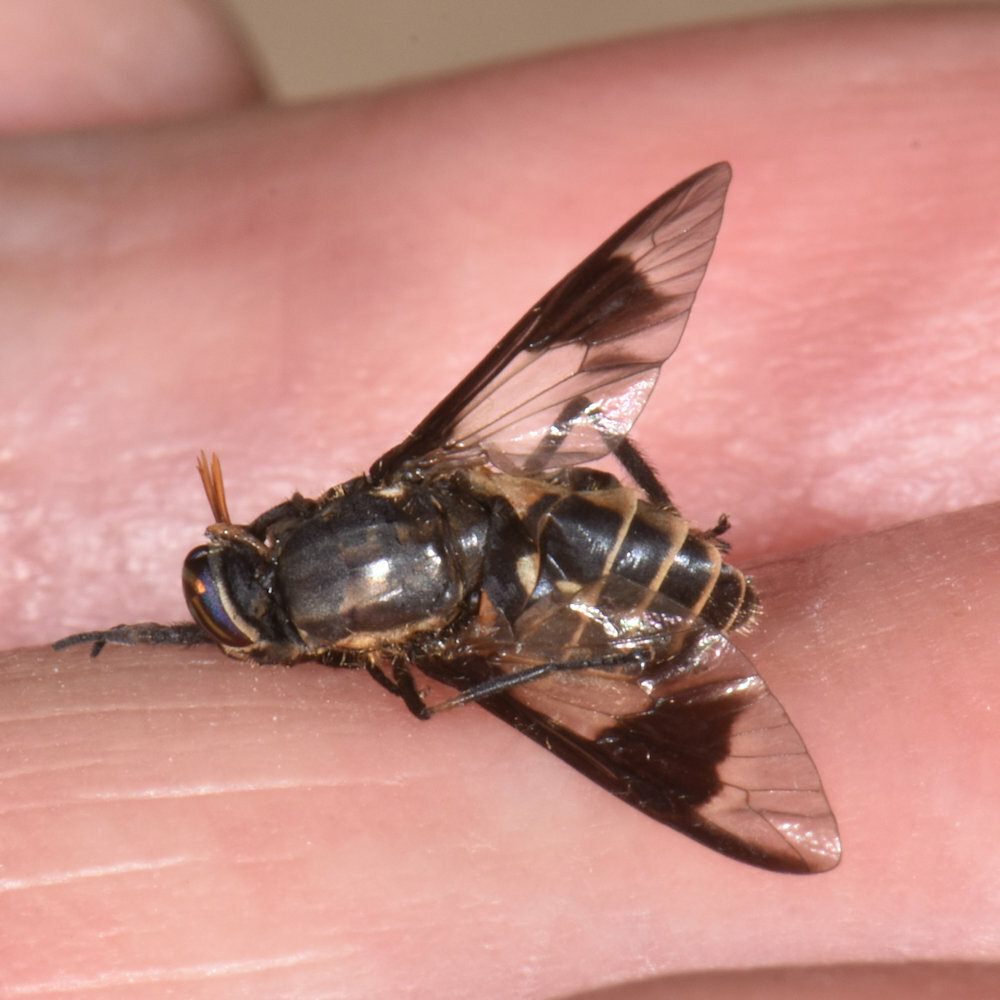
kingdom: Animalia
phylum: Arthropoda
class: Insecta
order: Diptera
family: Tabanidae
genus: Chrysops
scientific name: Chrysops sackeni
